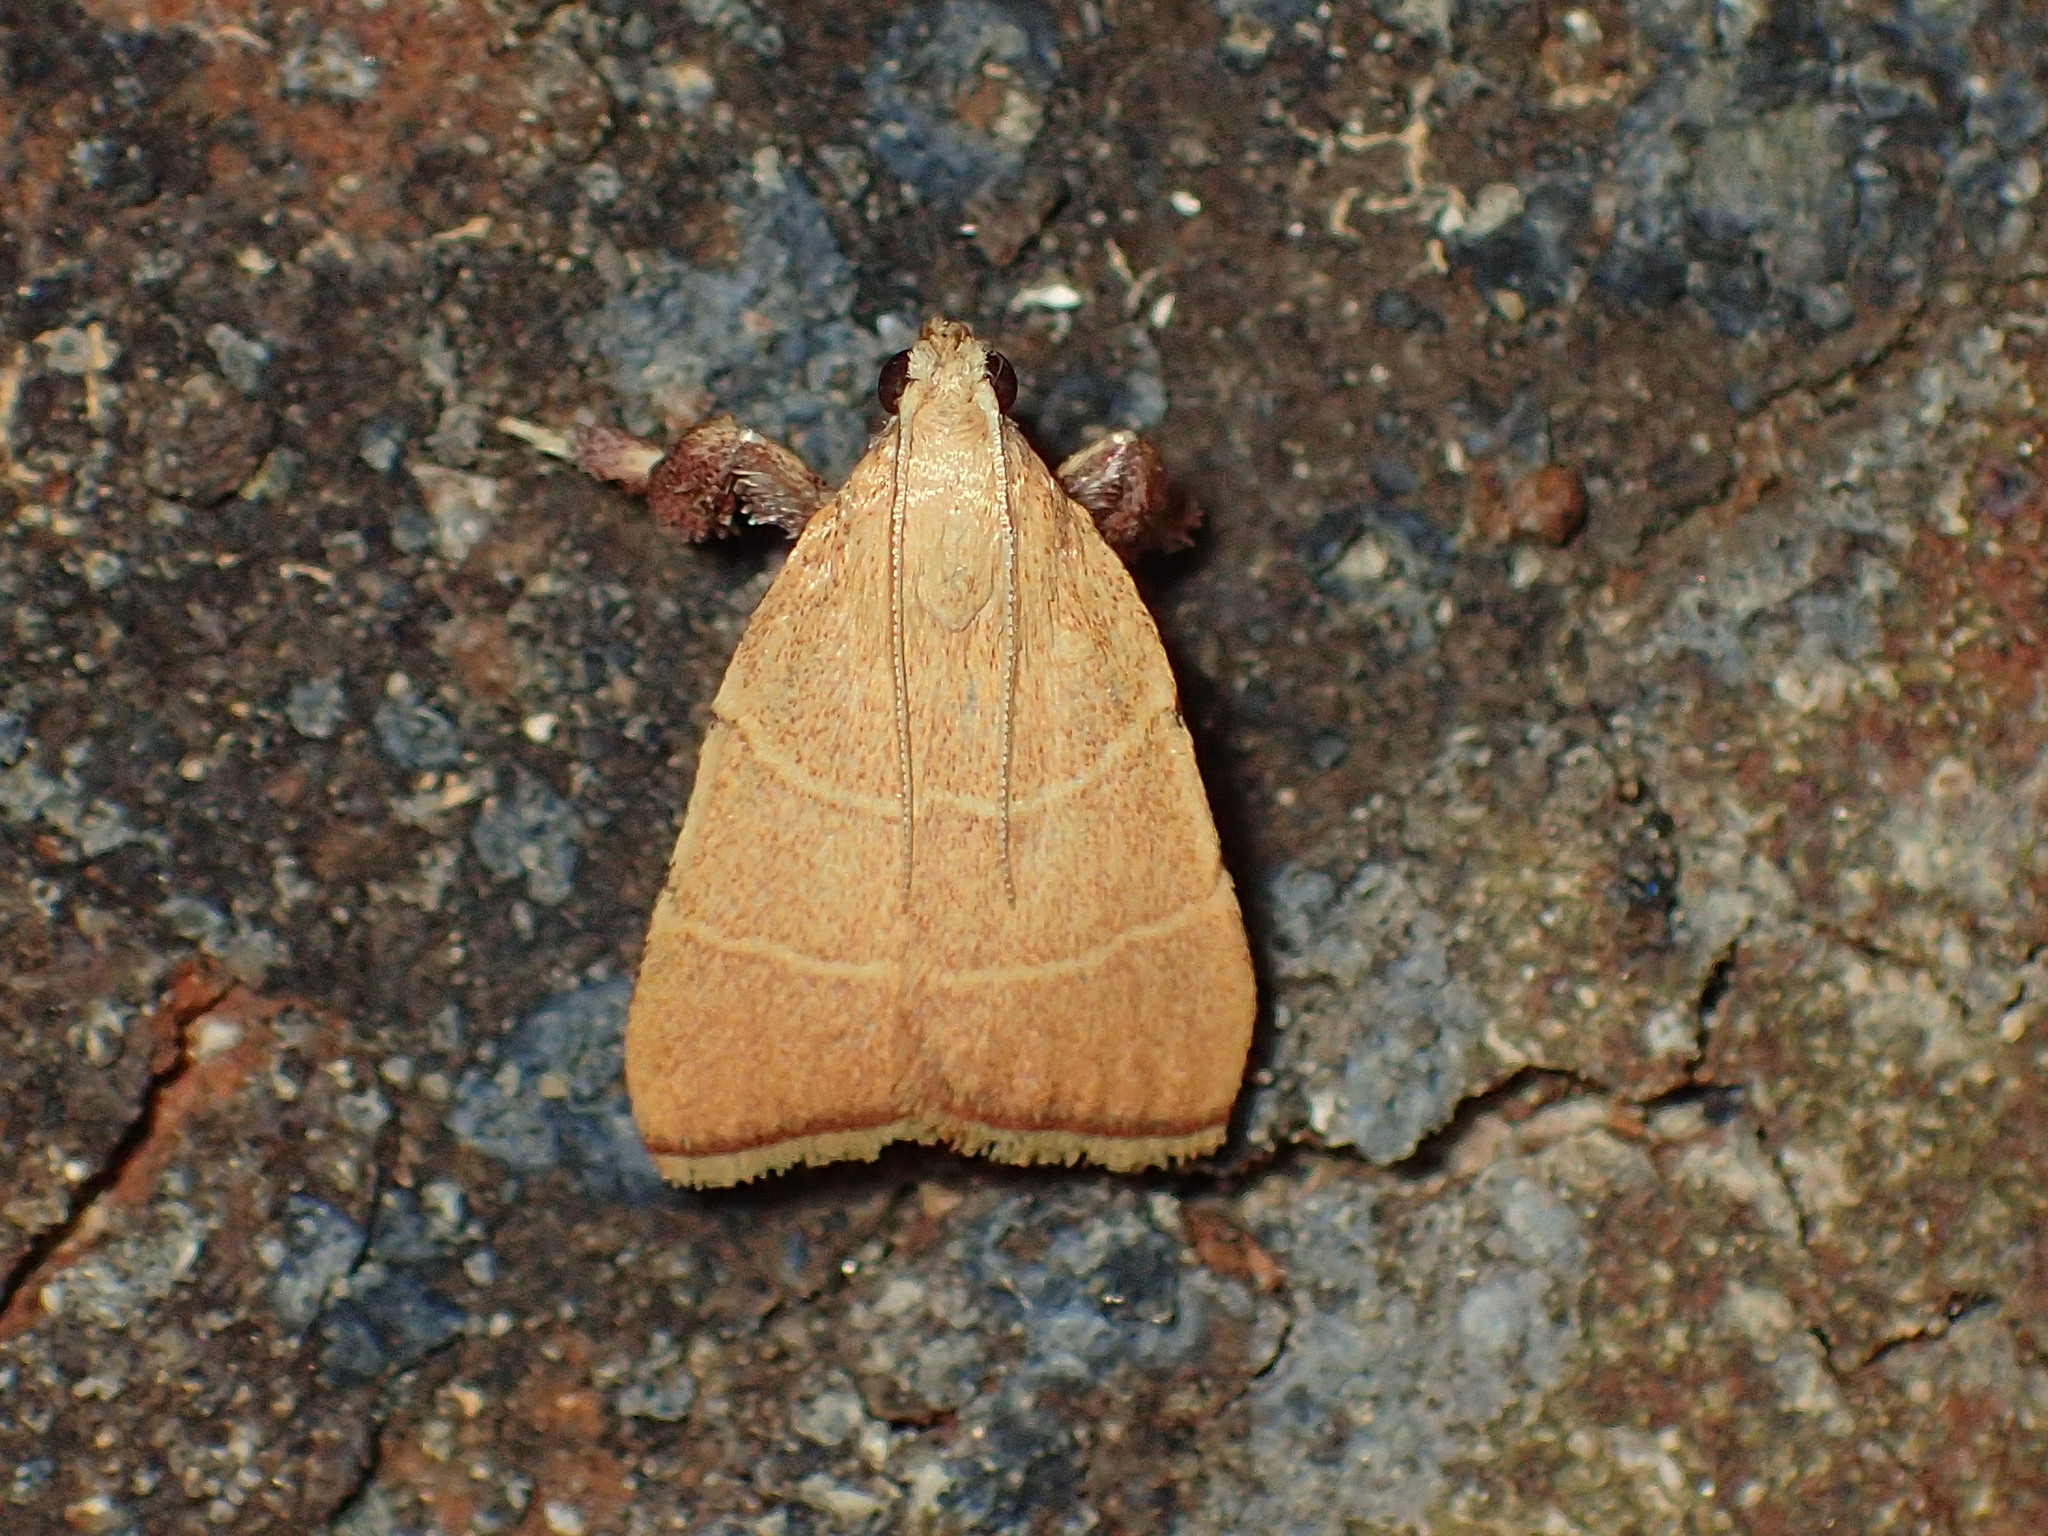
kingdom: Animalia
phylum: Arthropoda
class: Insecta
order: Lepidoptera
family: Pyralidae
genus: Parachma
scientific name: Parachma ochracealis
